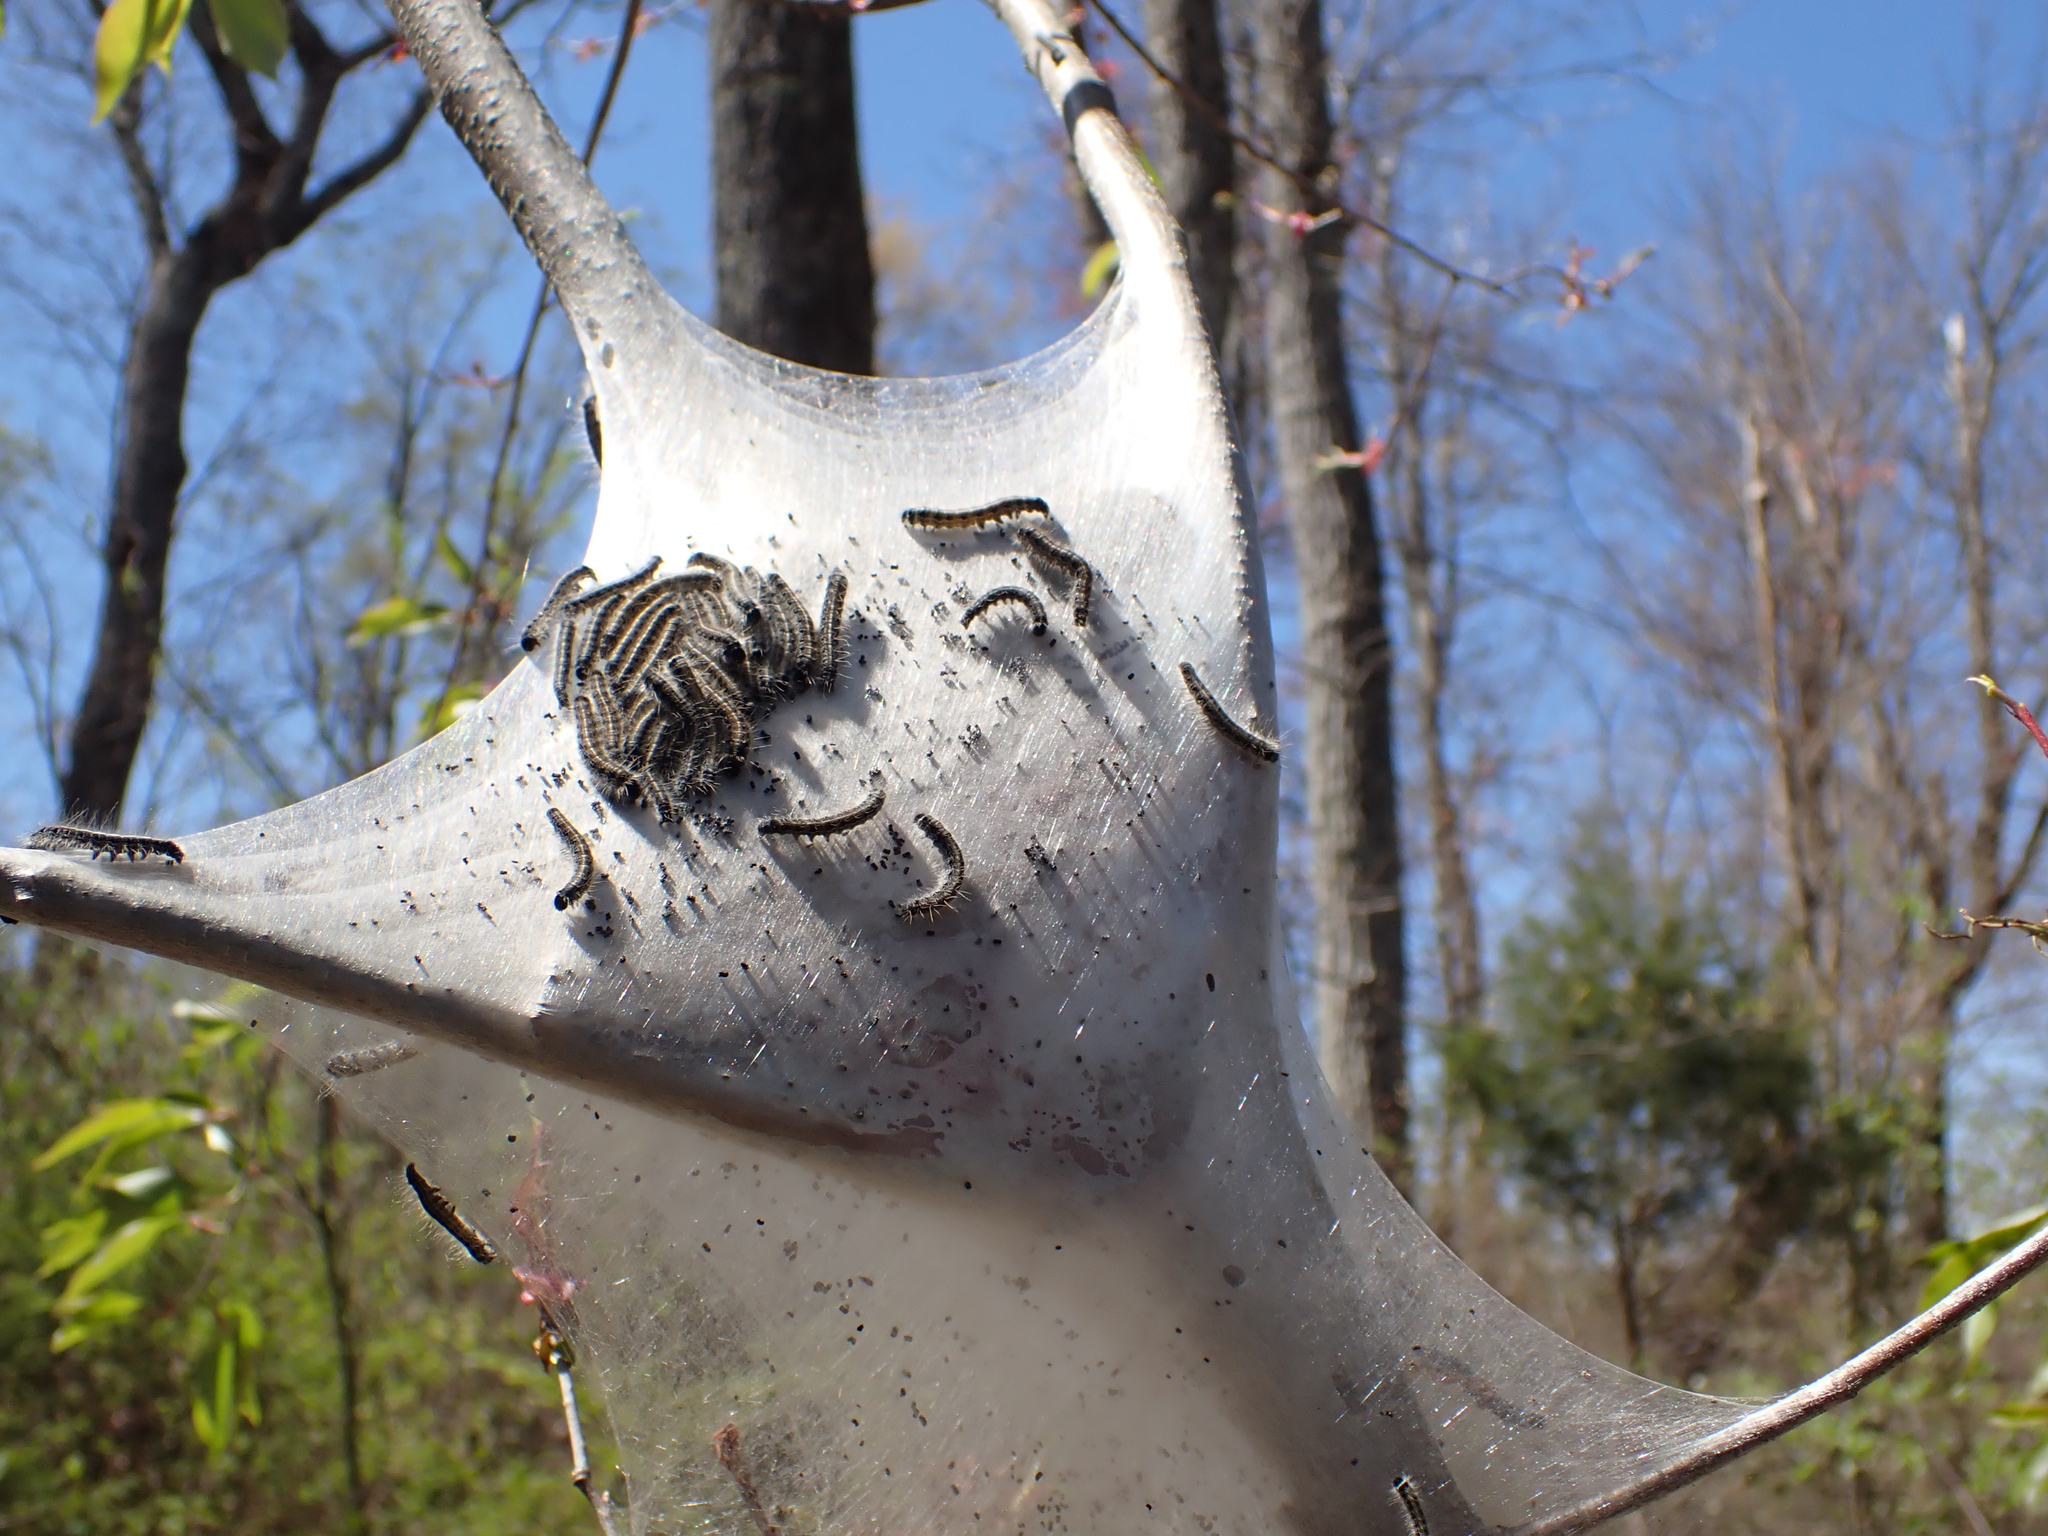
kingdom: Animalia
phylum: Arthropoda
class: Insecta
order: Lepidoptera
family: Lasiocampidae
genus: Malacosoma
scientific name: Malacosoma americana
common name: Eastern tent caterpillar moth
